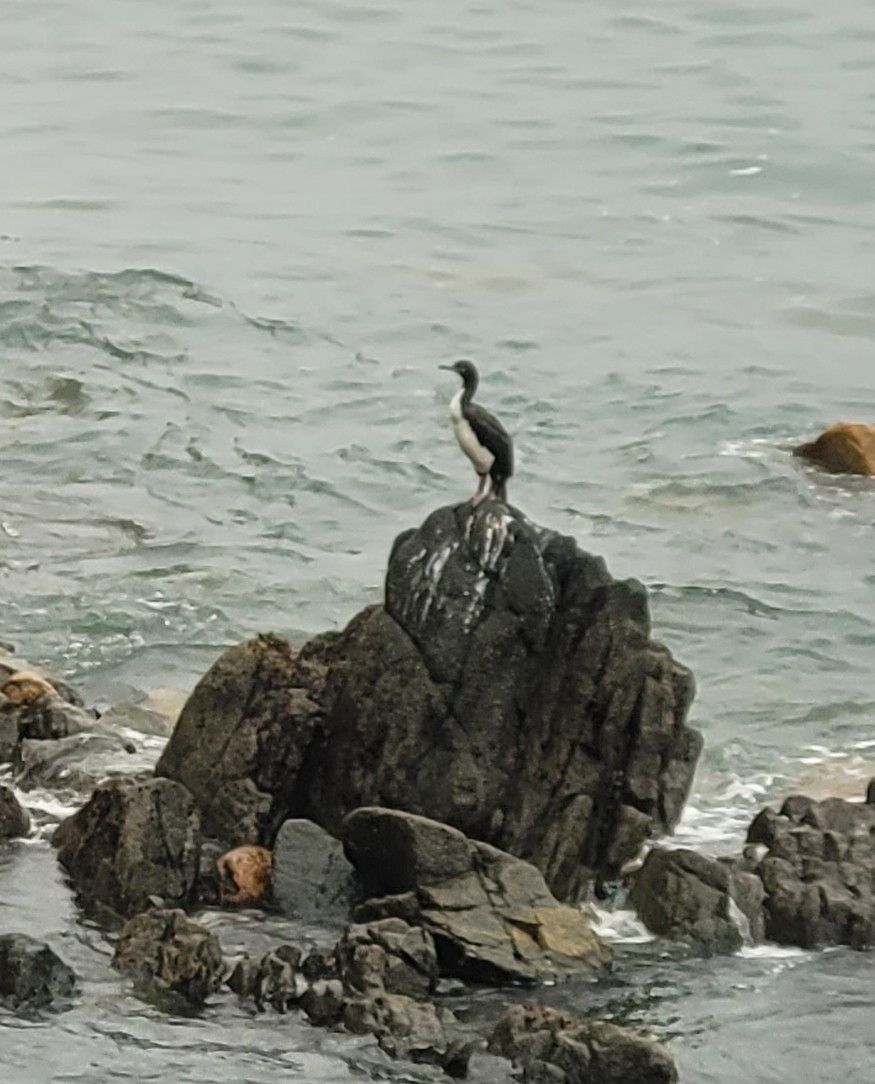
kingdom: Animalia
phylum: Chordata
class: Aves
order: Suliformes
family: Phalacrocoracidae
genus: Leucocarbo
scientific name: Leucocarbo bougainvillii
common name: Guanay cormorant
